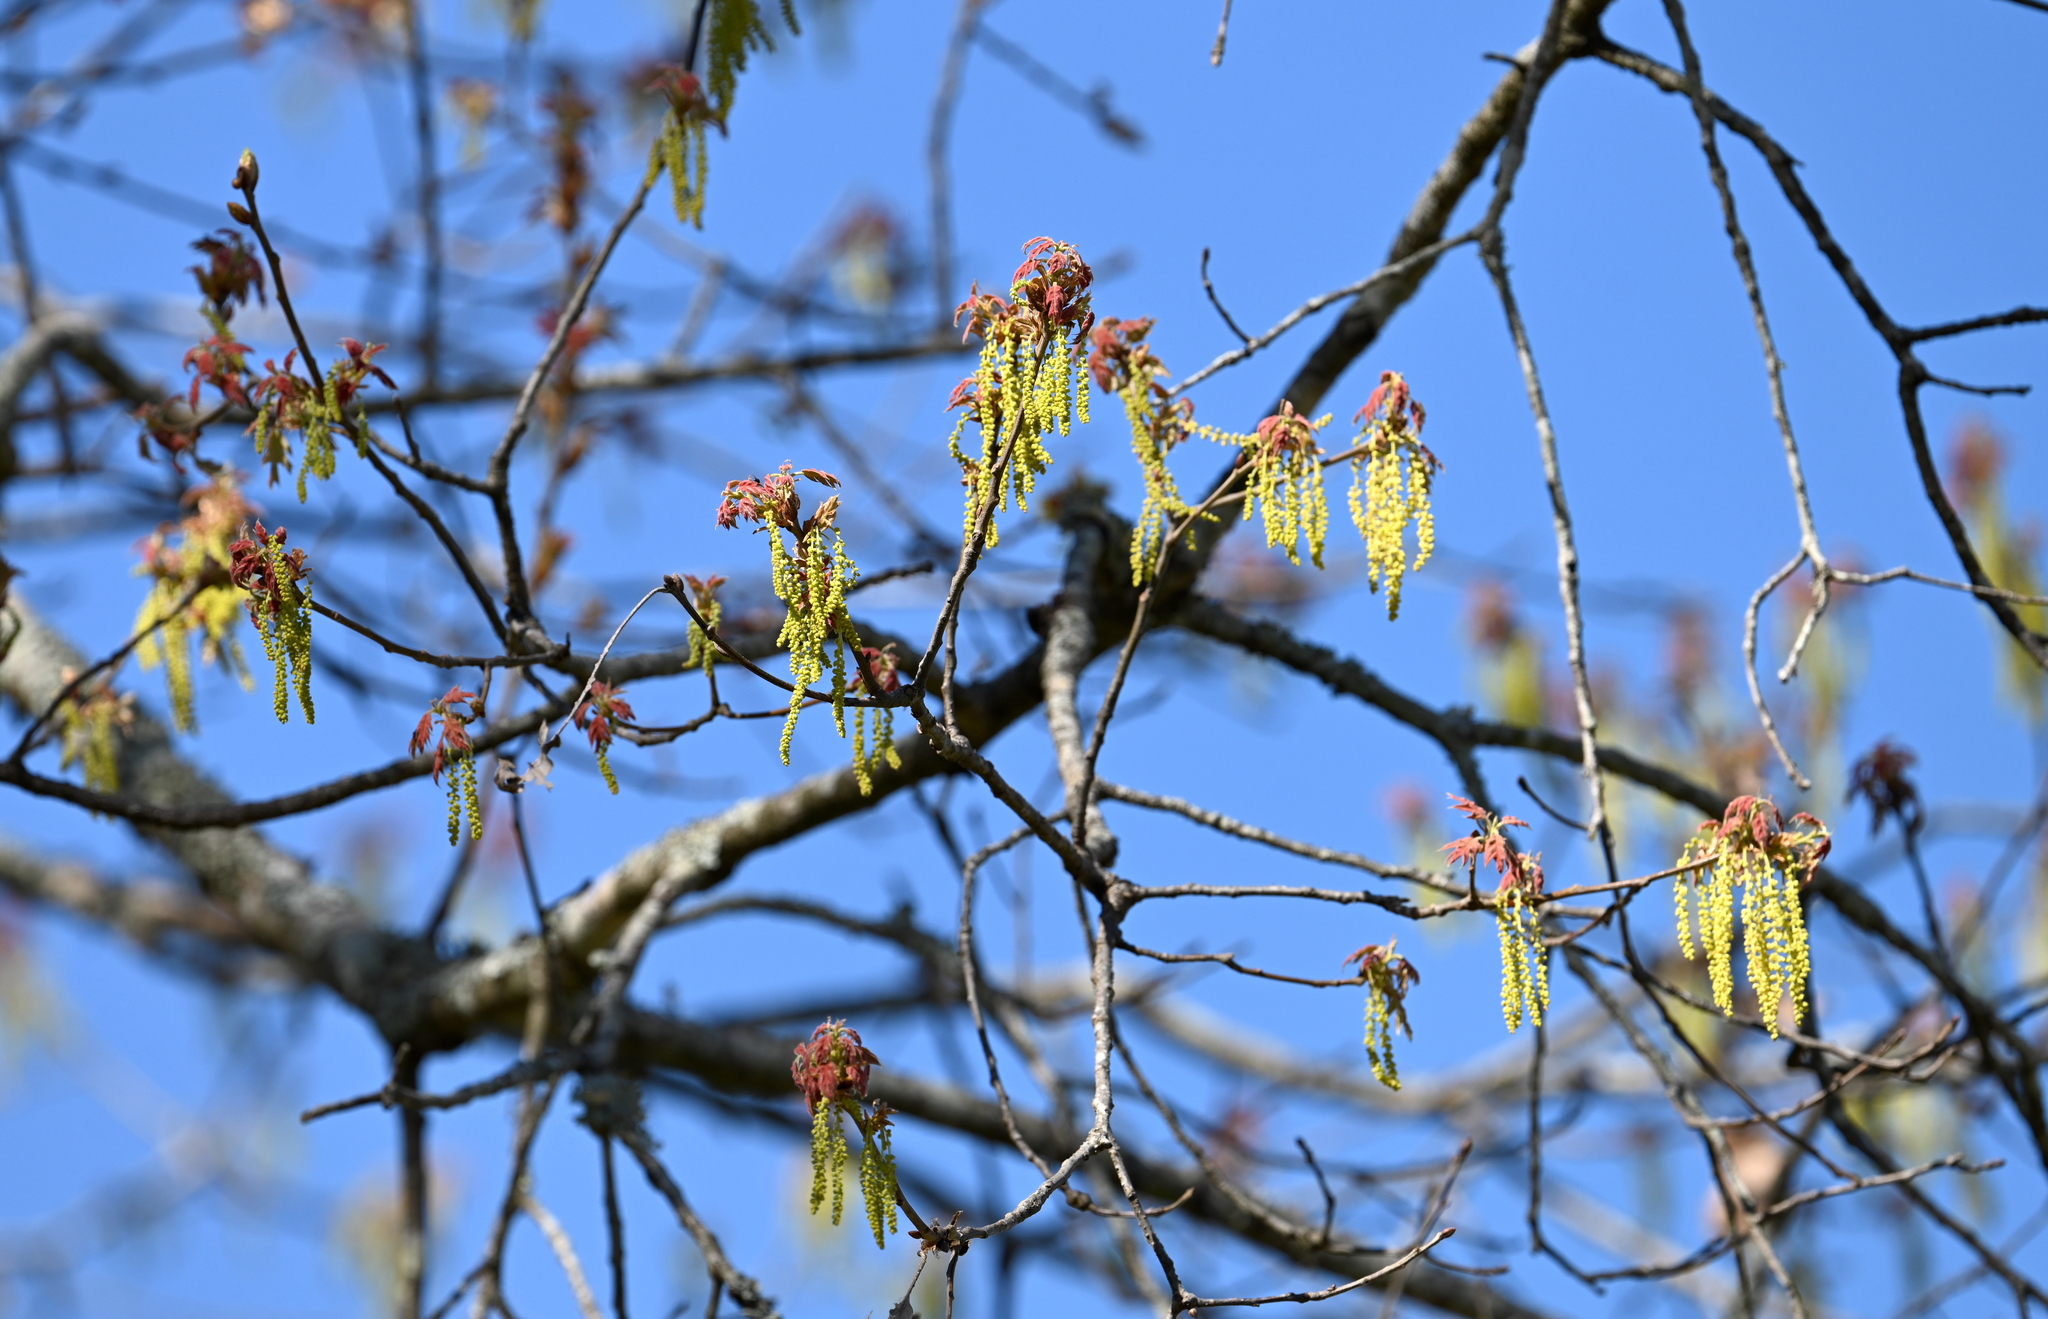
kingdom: Plantae
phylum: Tracheophyta
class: Magnoliopsida
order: Fagales
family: Fagaceae
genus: Quercus
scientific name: Quercus pagoda
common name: Cherrybark oak
